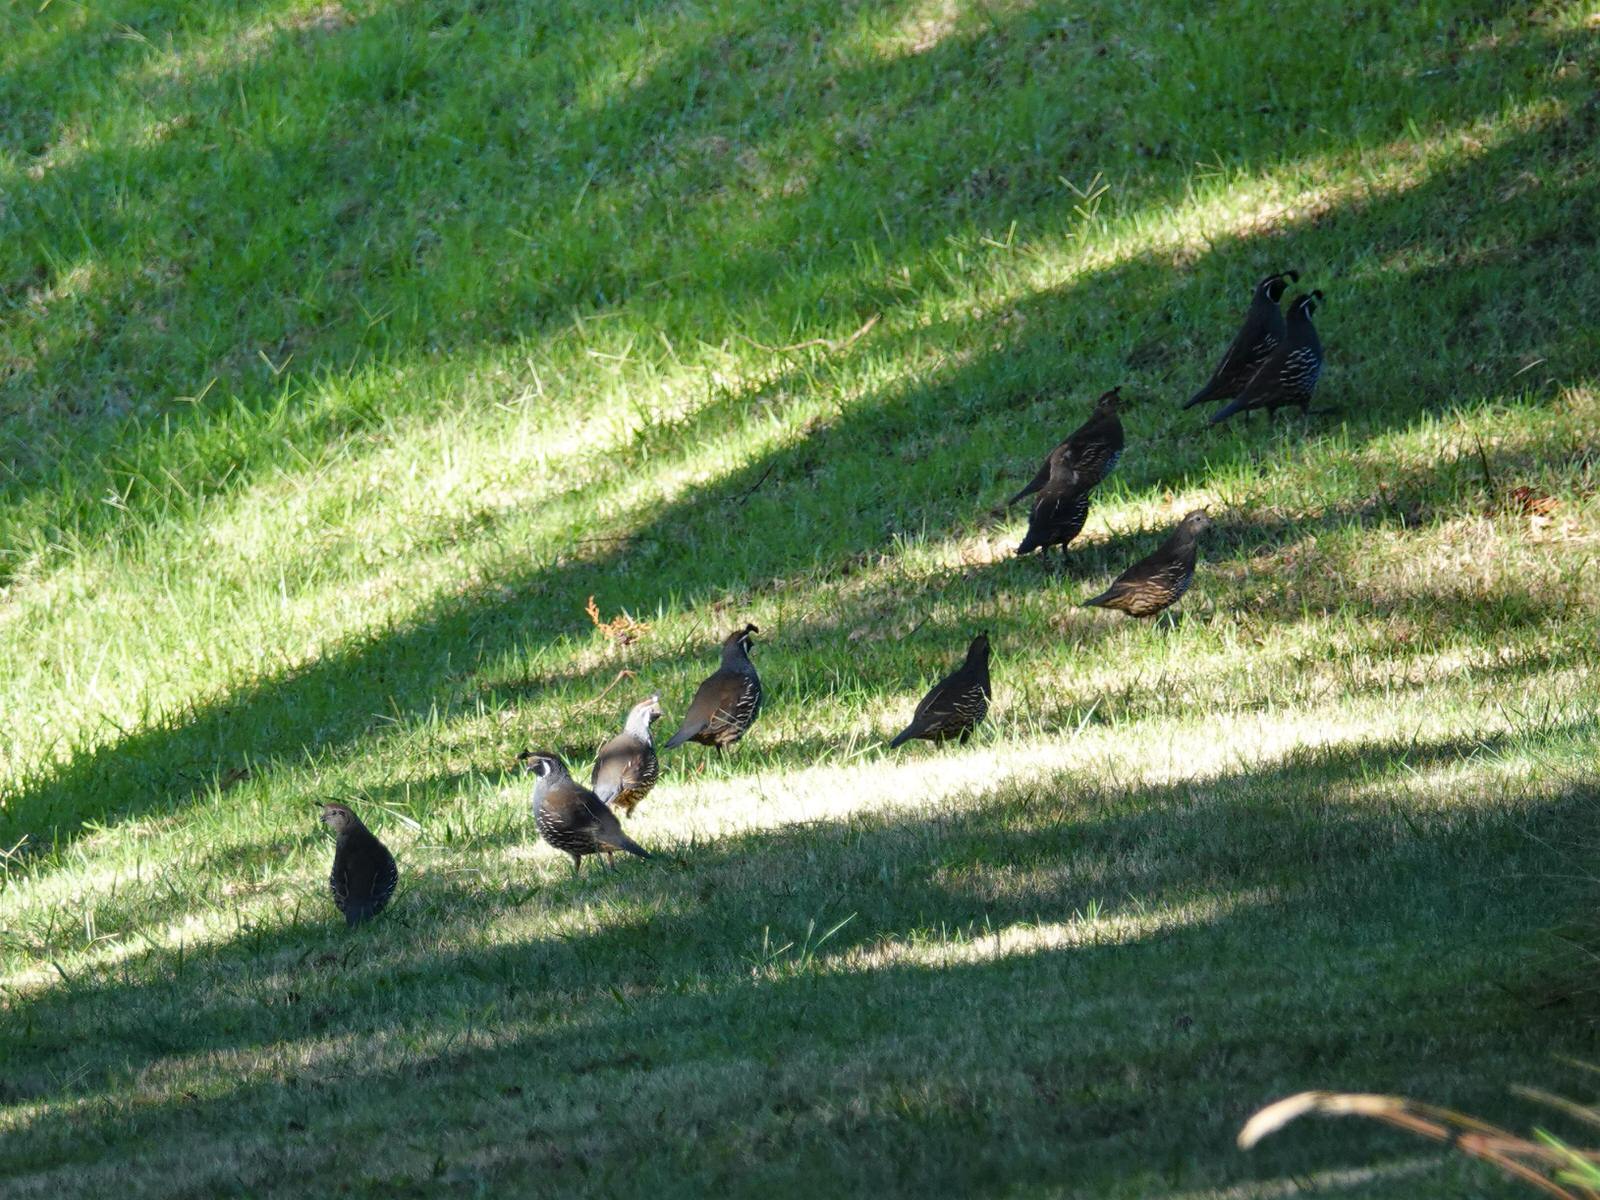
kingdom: Animalia
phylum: Chordata
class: Aves
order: Galliformes
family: Odontophoridae
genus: Callipepla
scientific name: Callipepla californica
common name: California quail
